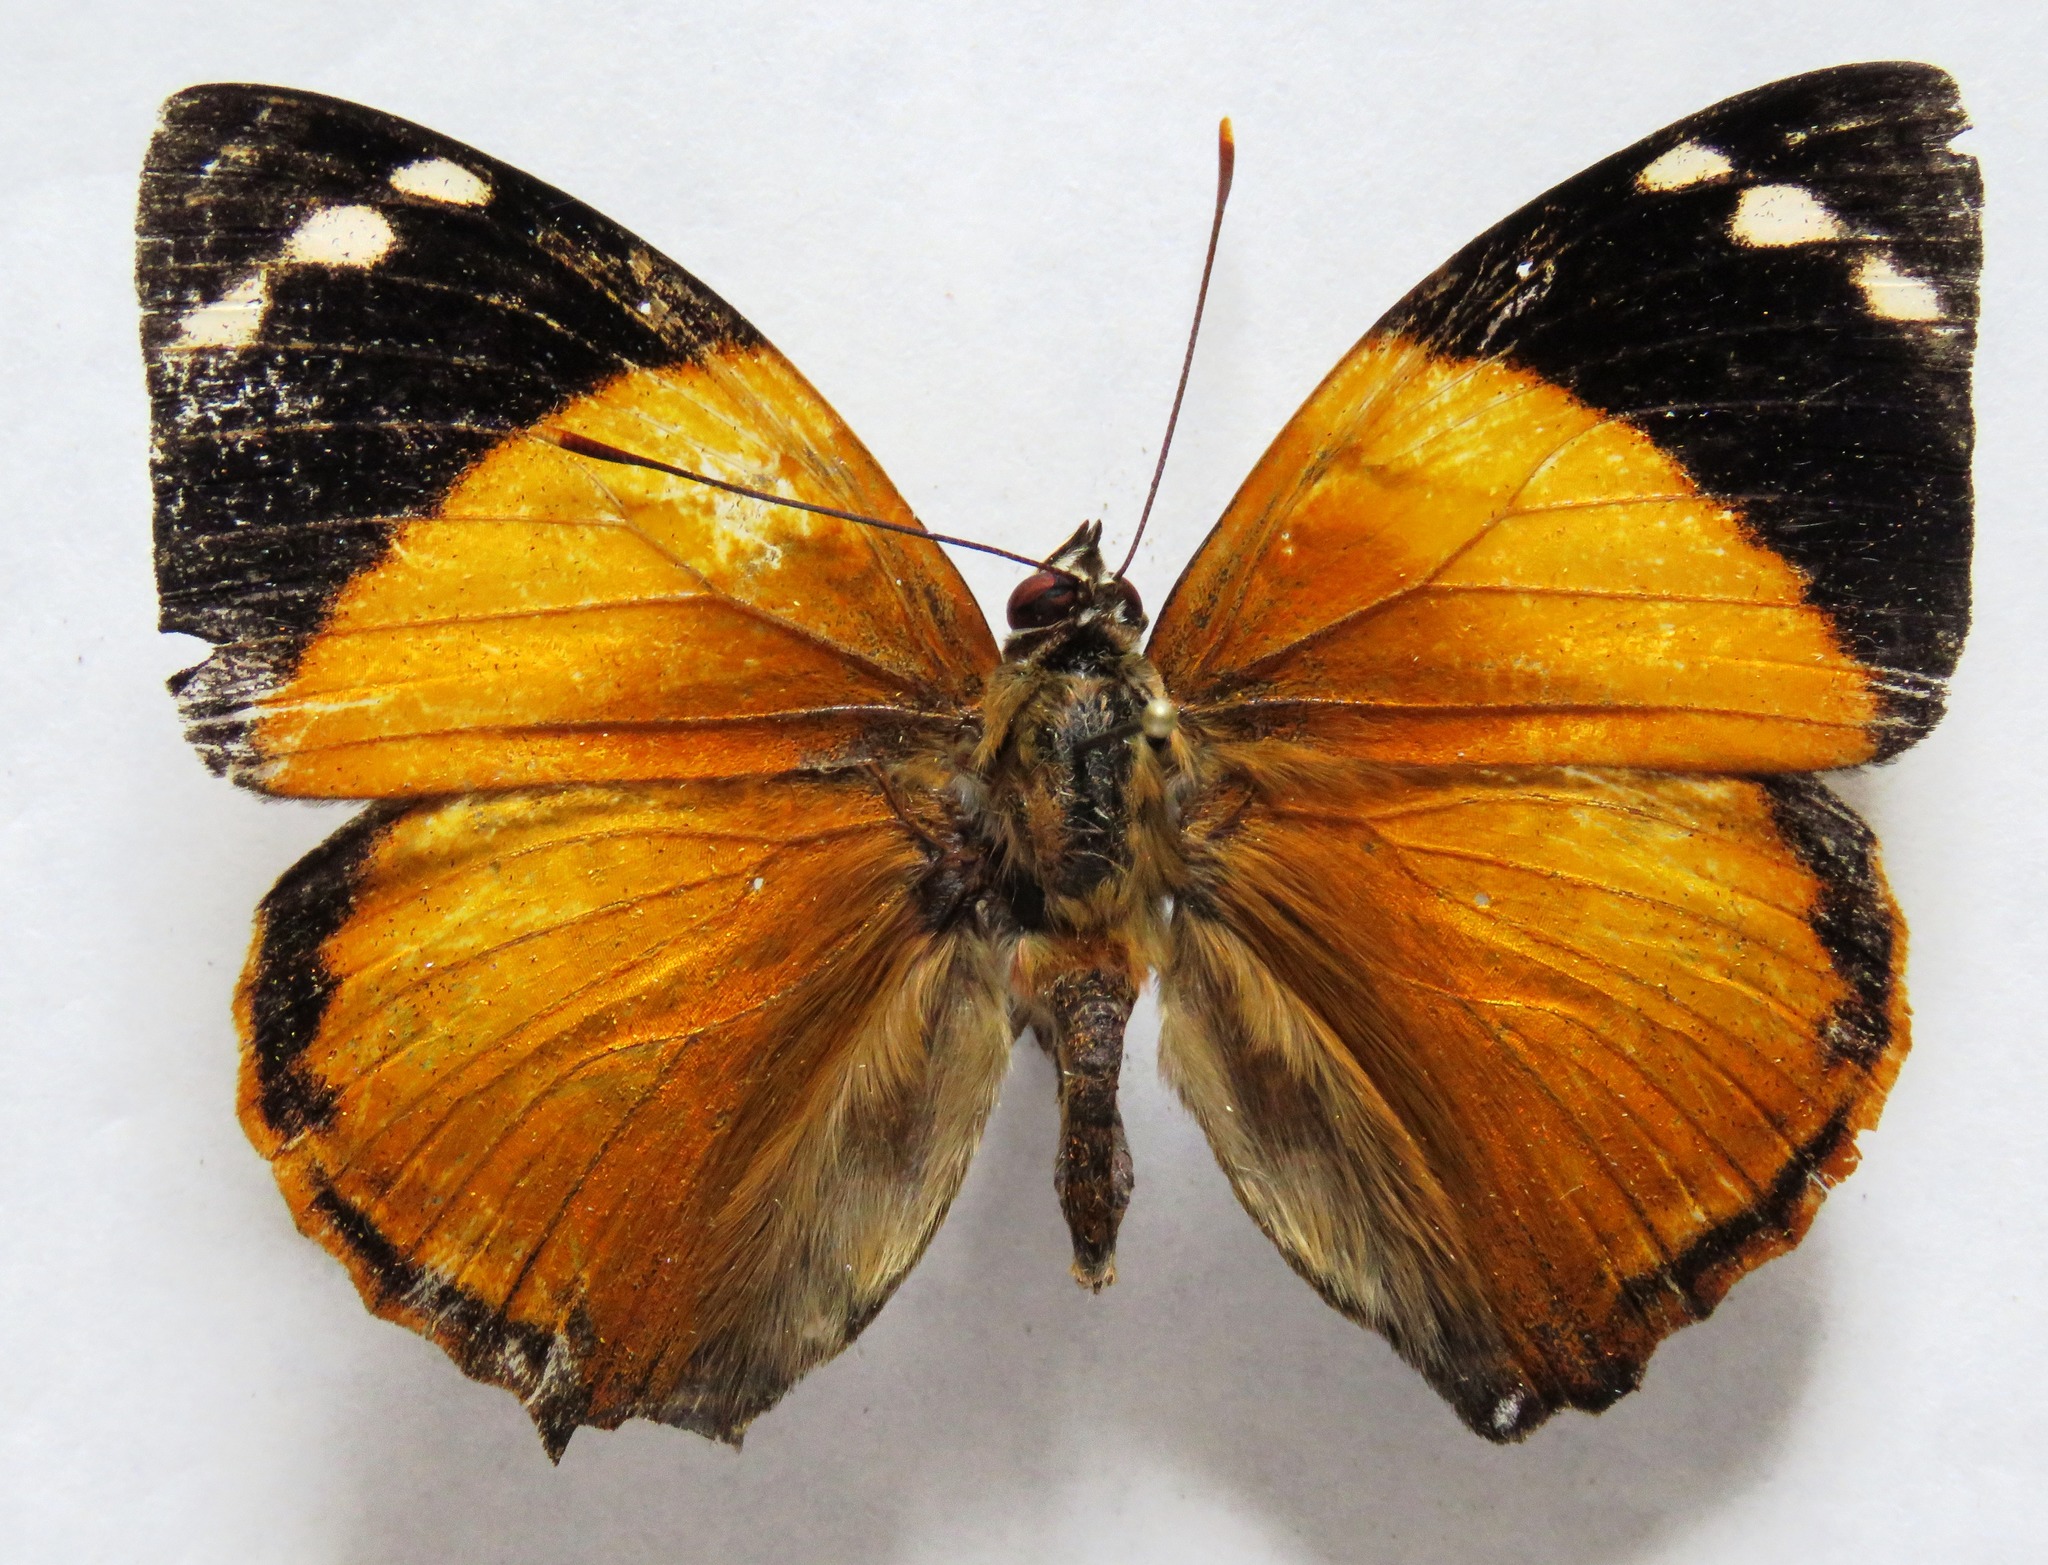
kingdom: Animalia
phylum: Arthropoda
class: Insecta
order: Lepidoptera
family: Nymphalidae
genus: Smyrna
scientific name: Smyrna blomfildia
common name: Blomfild's beauty
